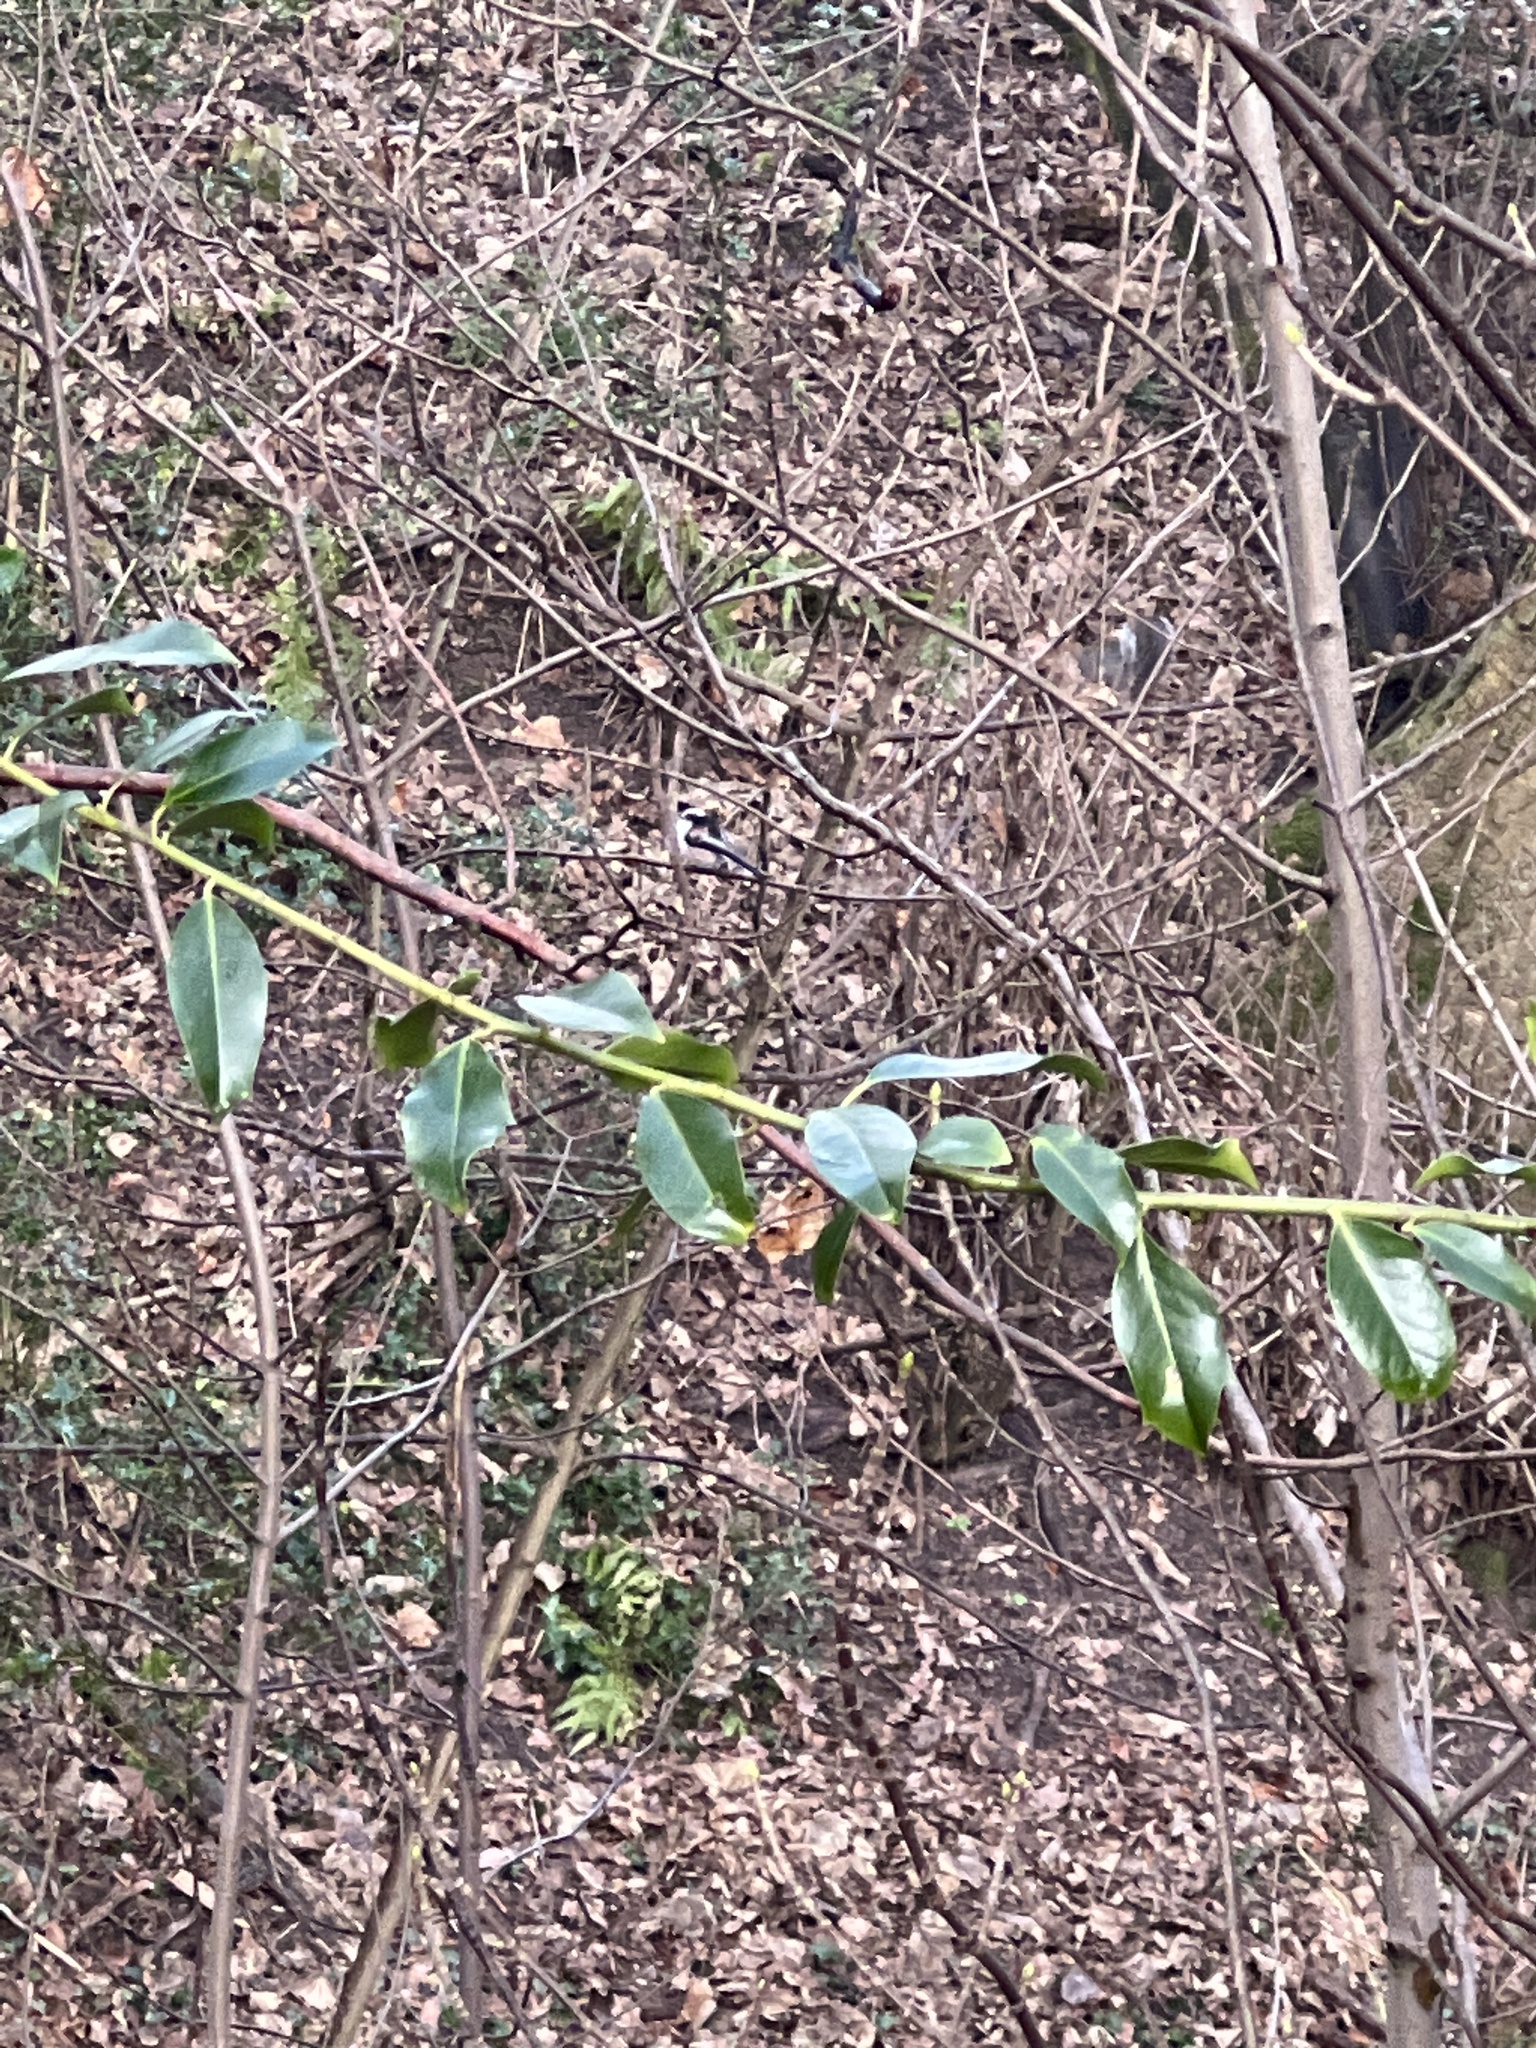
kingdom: Animalia
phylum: Chordata
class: Aves
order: Passeriformes
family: Aegithalidae
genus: Aegithalos
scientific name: Aegithalos caudatus
